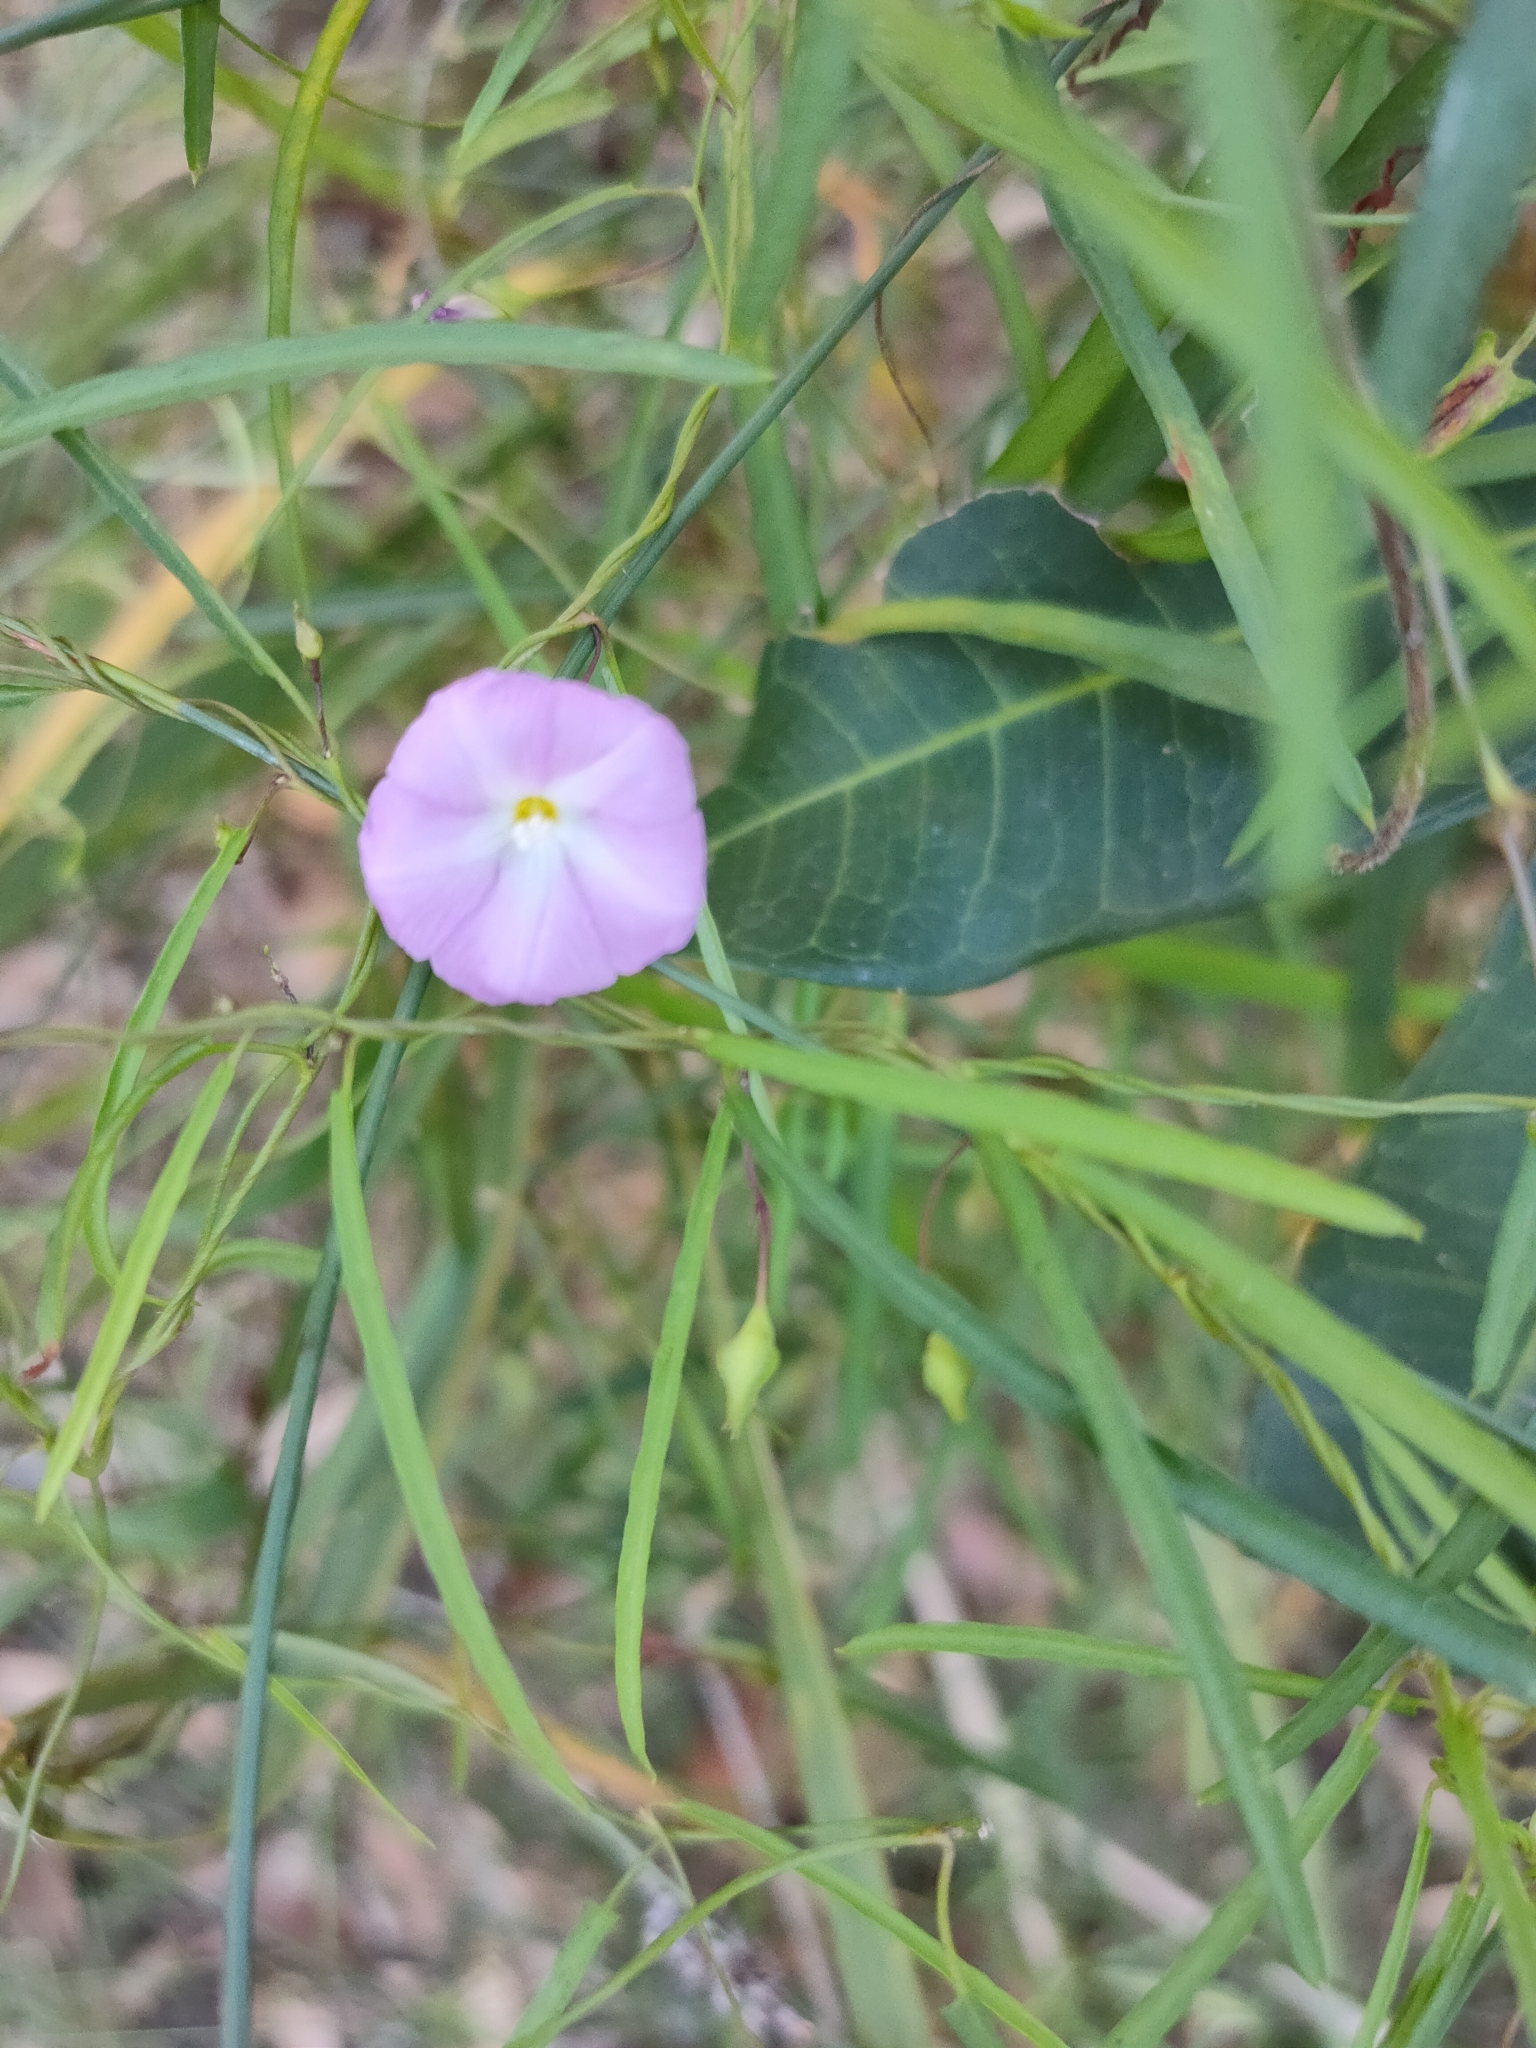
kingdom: Plantae
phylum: Tracheophyta
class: Magnoliopsida
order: Solanales
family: Convolvulaceae
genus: Polymeria
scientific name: Polymeria calycina
